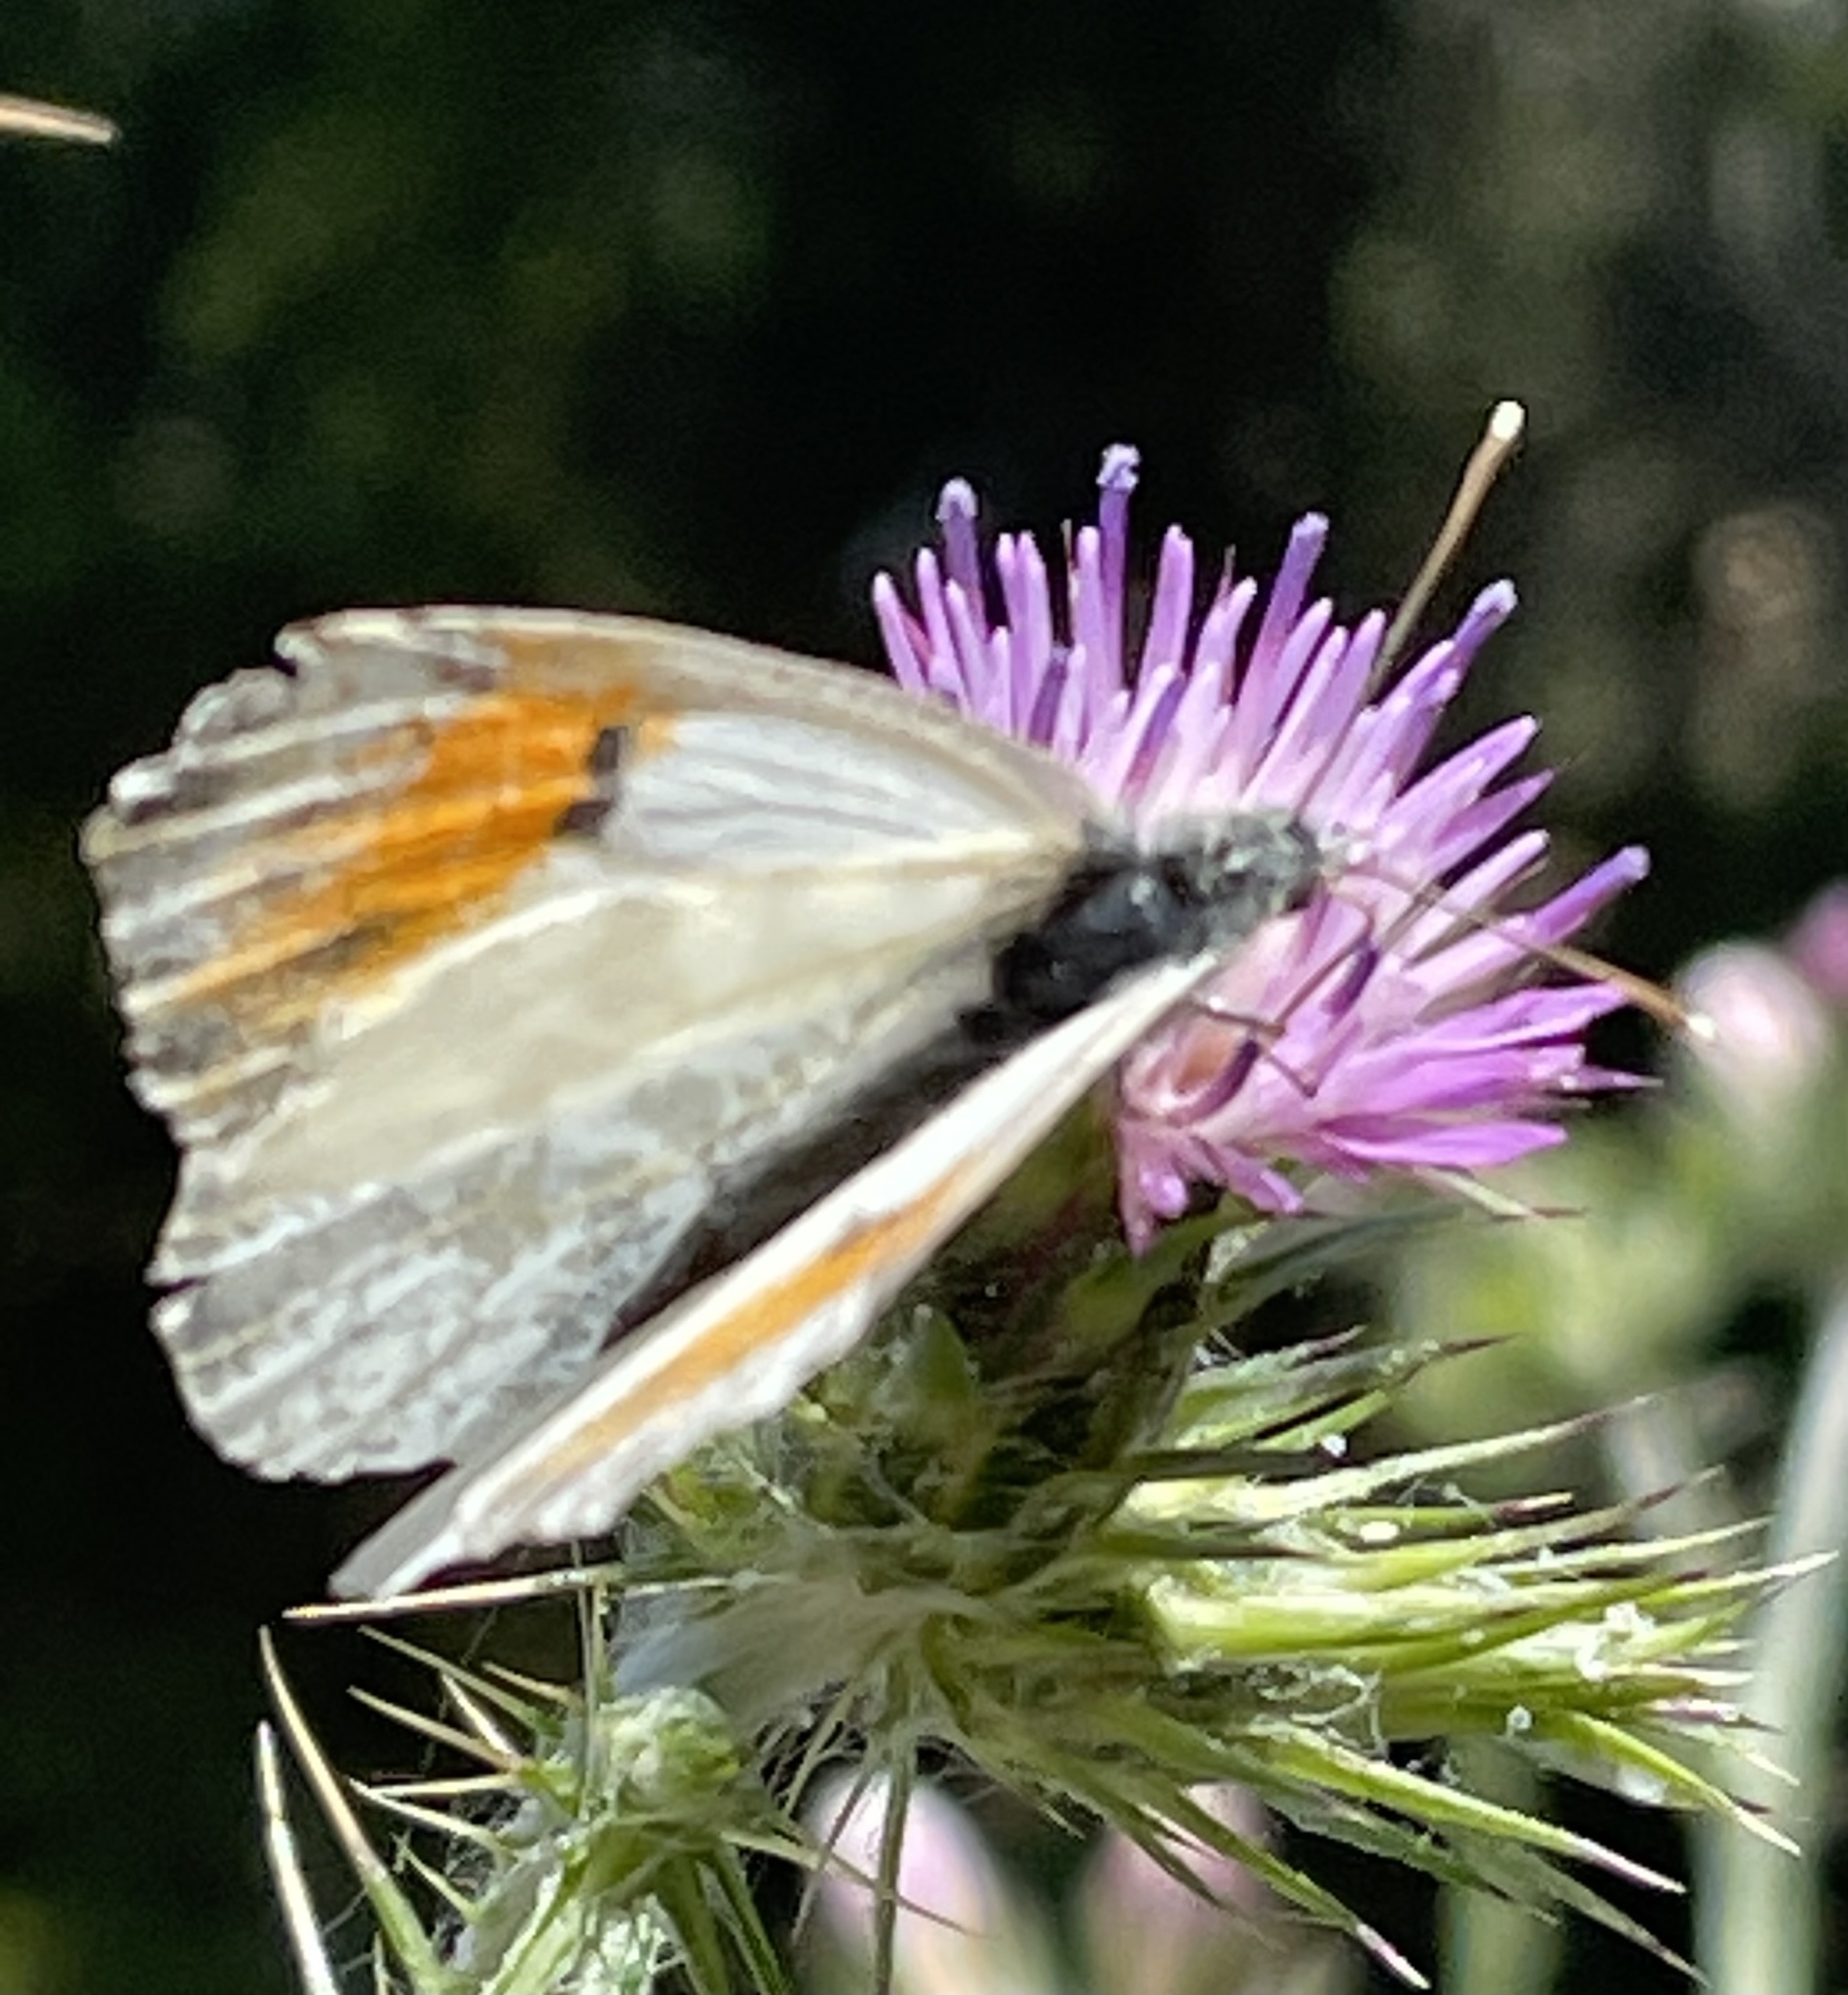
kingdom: Animalia
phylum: Arthropoda
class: Insecta
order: Lepidoptera
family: Pieridae
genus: Anthocharis
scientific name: Anthocharis sara
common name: Sara's orangetip
